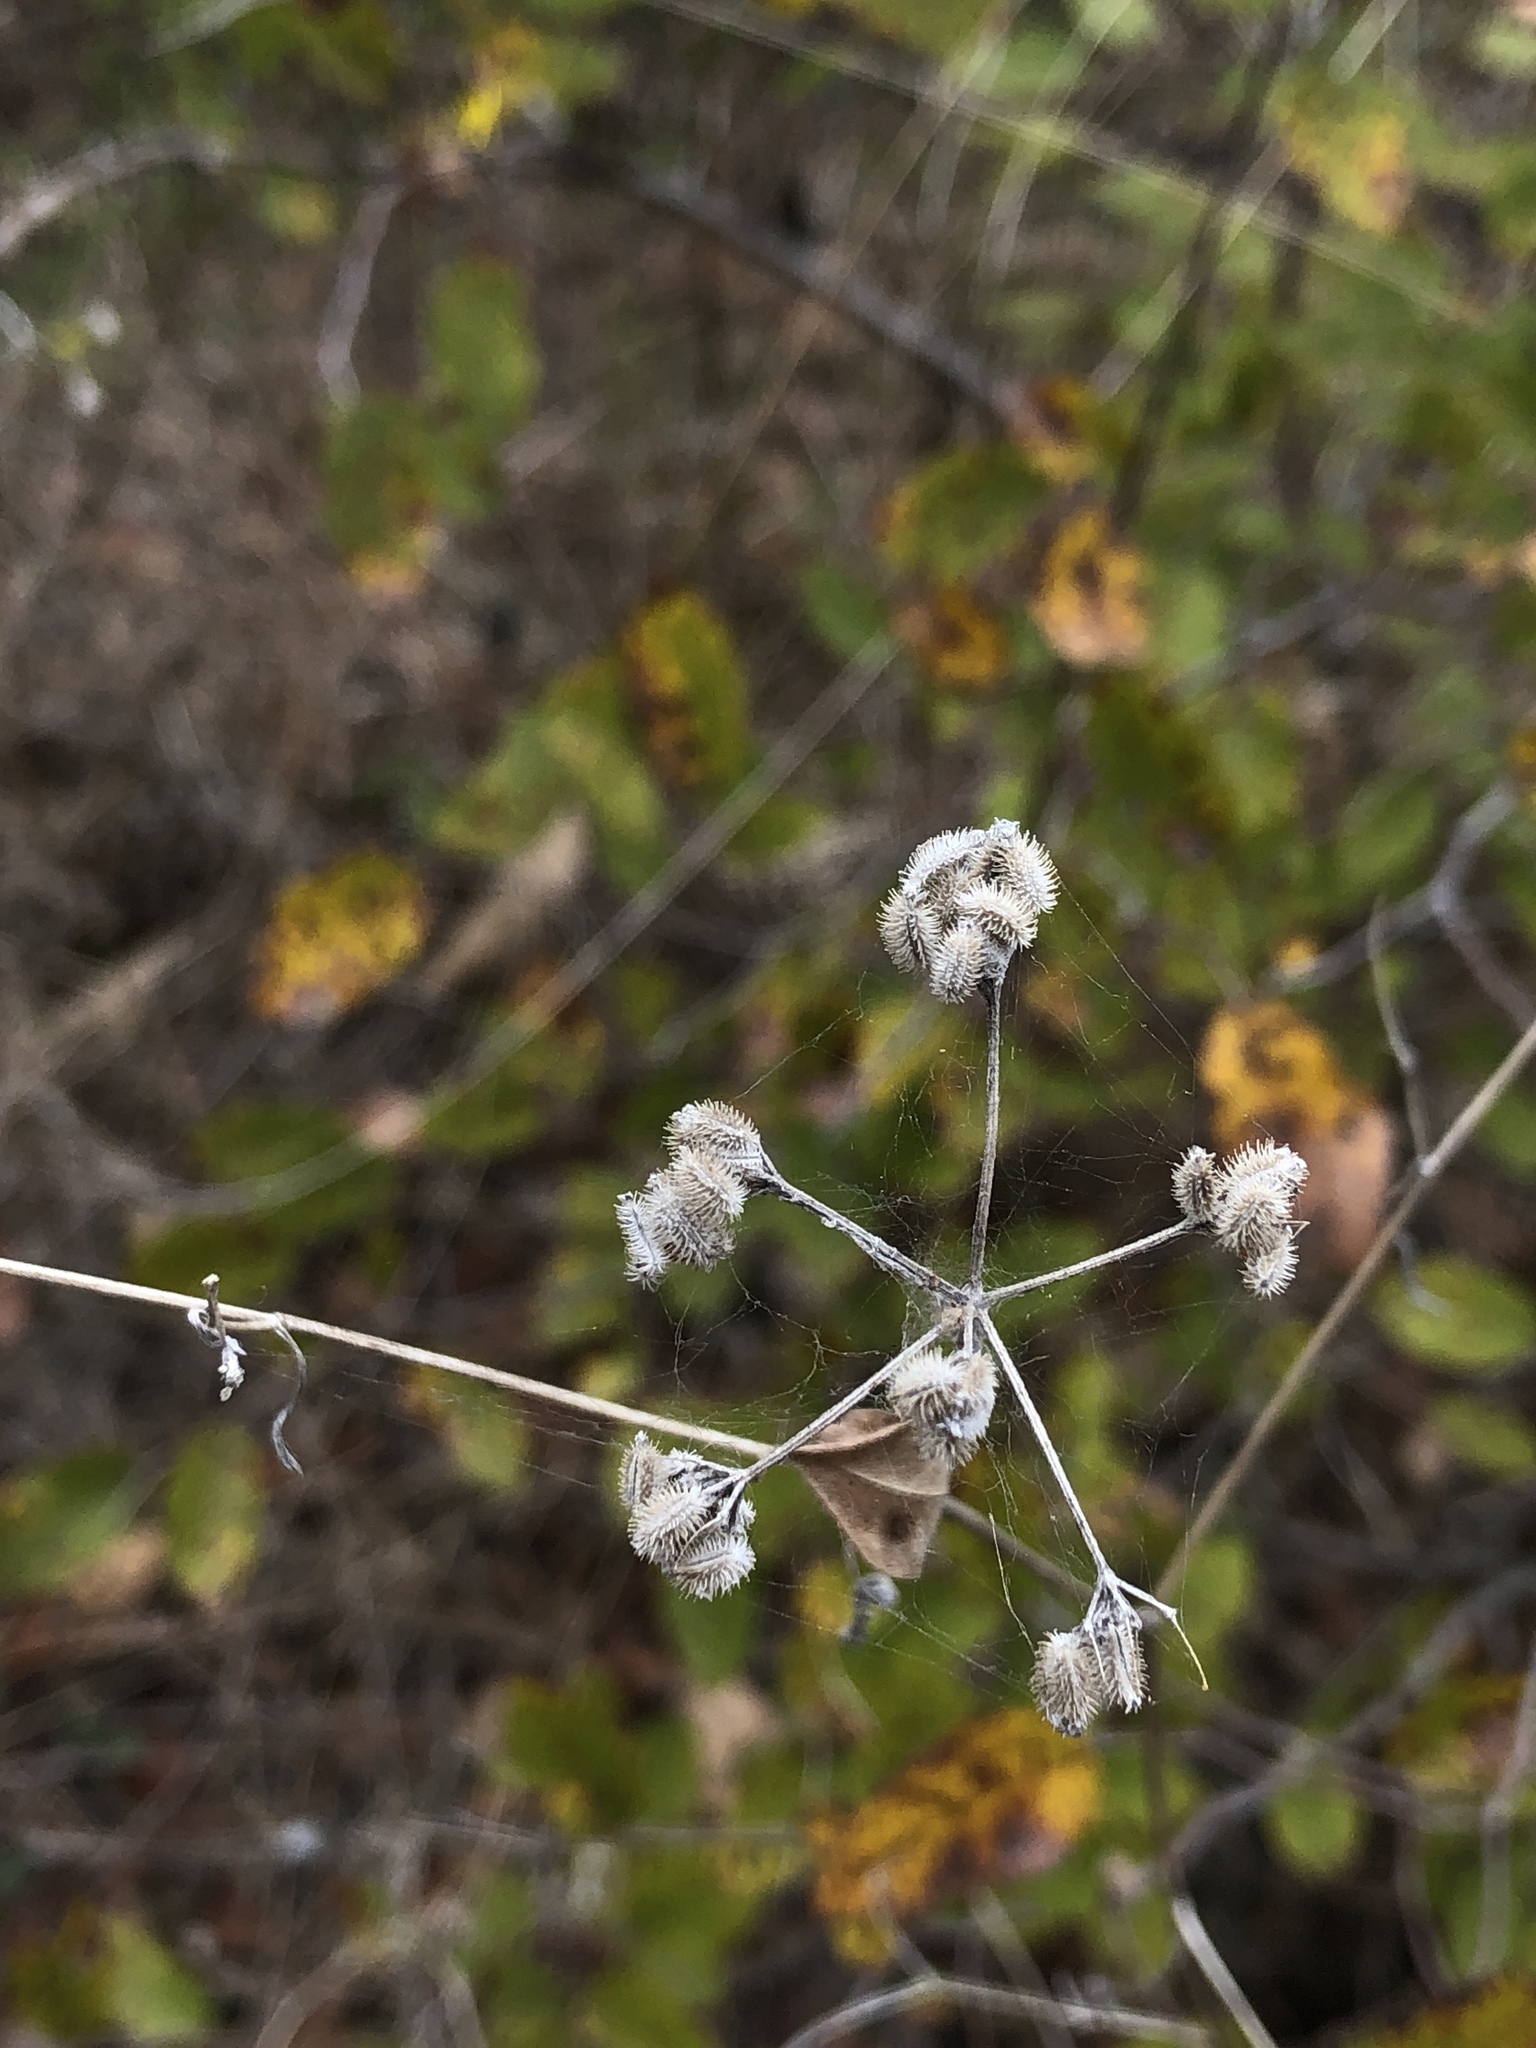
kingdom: Plantae
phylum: Tracheophyta
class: Magnoliopsida
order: Apiales
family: Apiaceae
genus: Torilis
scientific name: Torilis arvensis
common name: Spreading hedge-parsley
